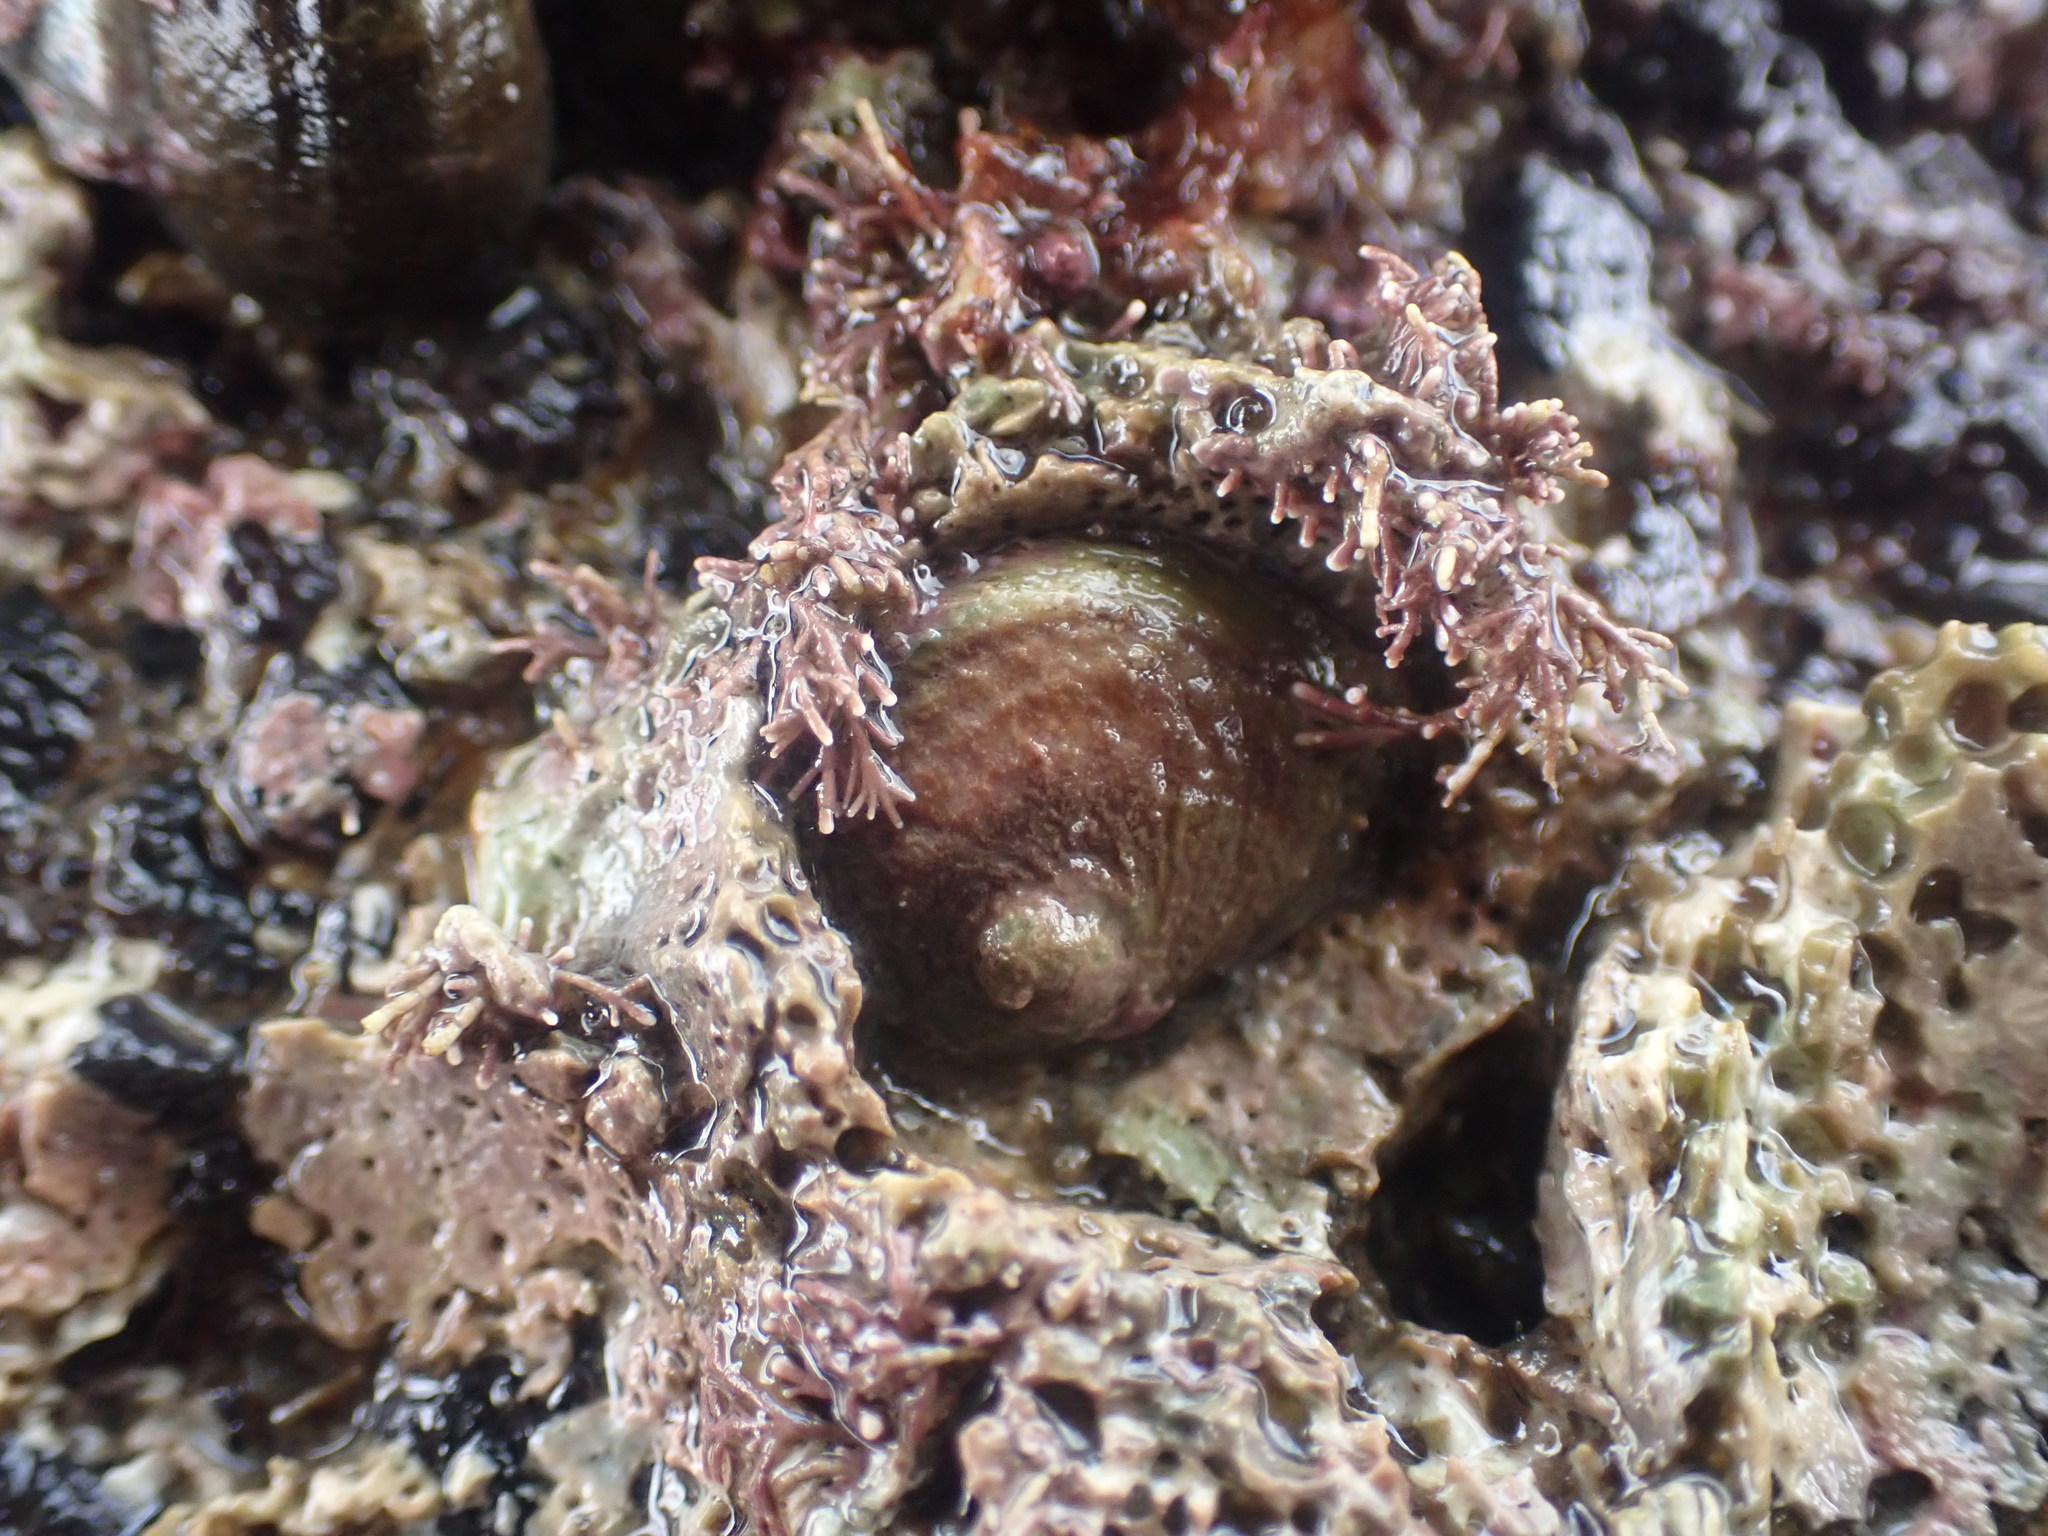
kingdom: Animalia
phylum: Mollusca
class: Gastropoda
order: Littorinimorpha
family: Calyptraeidae
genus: Sigapatella
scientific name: Sigapatella novaezelandiae
